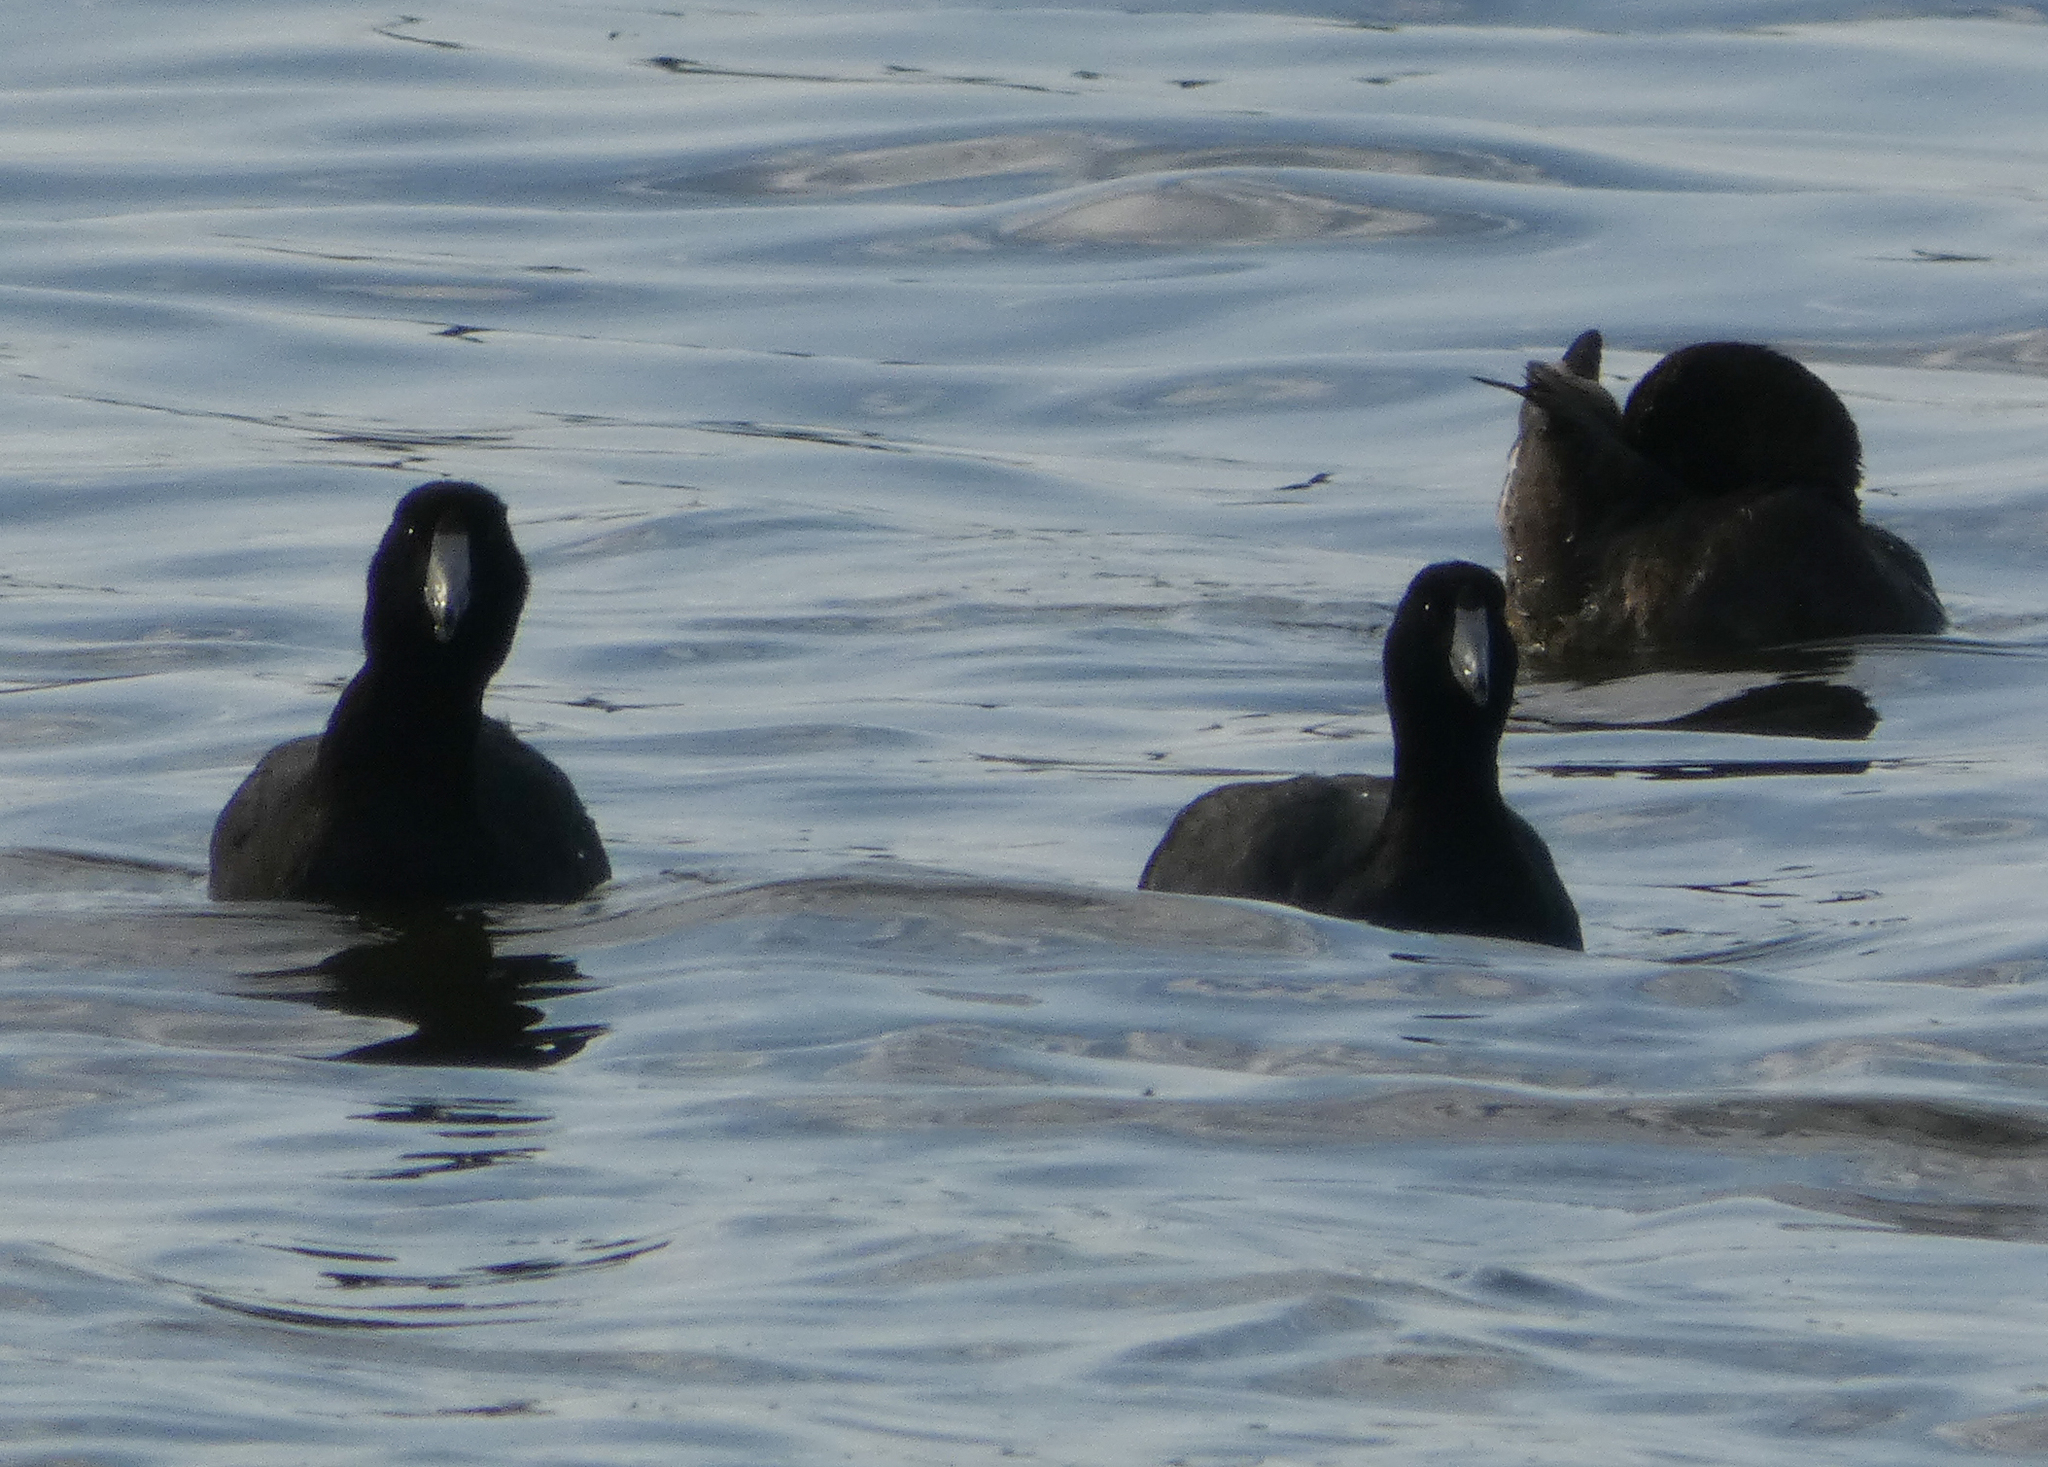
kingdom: Animalia
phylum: Chordata
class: Aves
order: Gruiformes
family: Rallidae
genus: Fulica
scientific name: Fulica americana
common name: American coot
